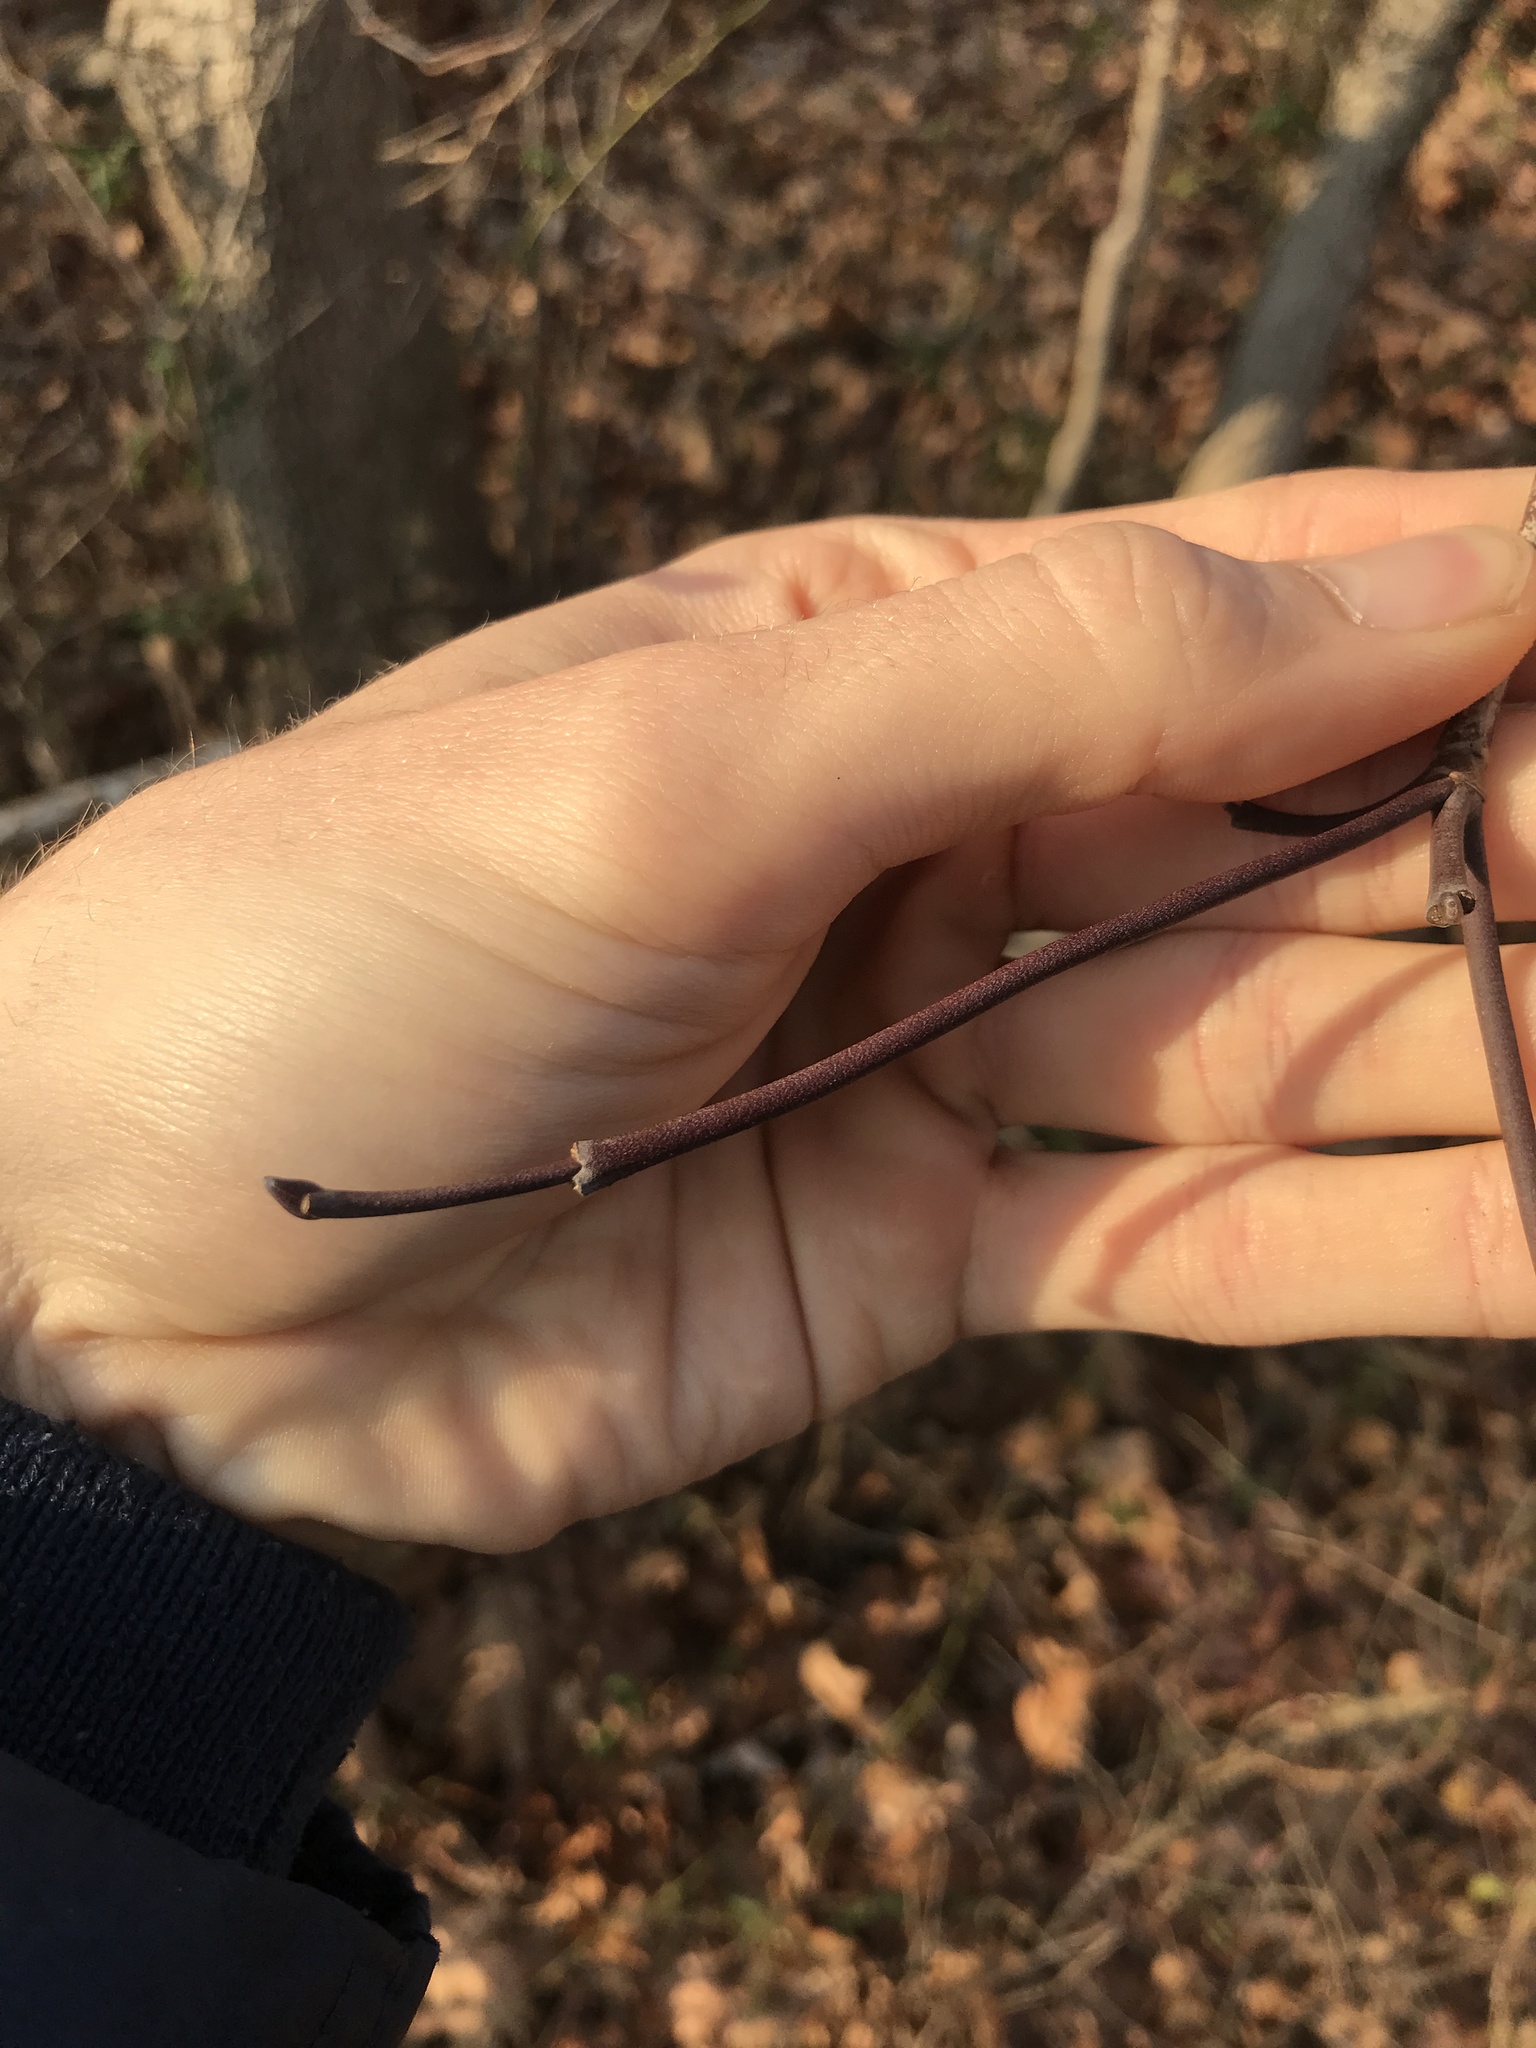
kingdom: Plantae
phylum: Tracheophyta
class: Magnoliopsida
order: Cornales
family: Cornaceae
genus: Cornus
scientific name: Cornus florida
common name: Flowering dogwood
